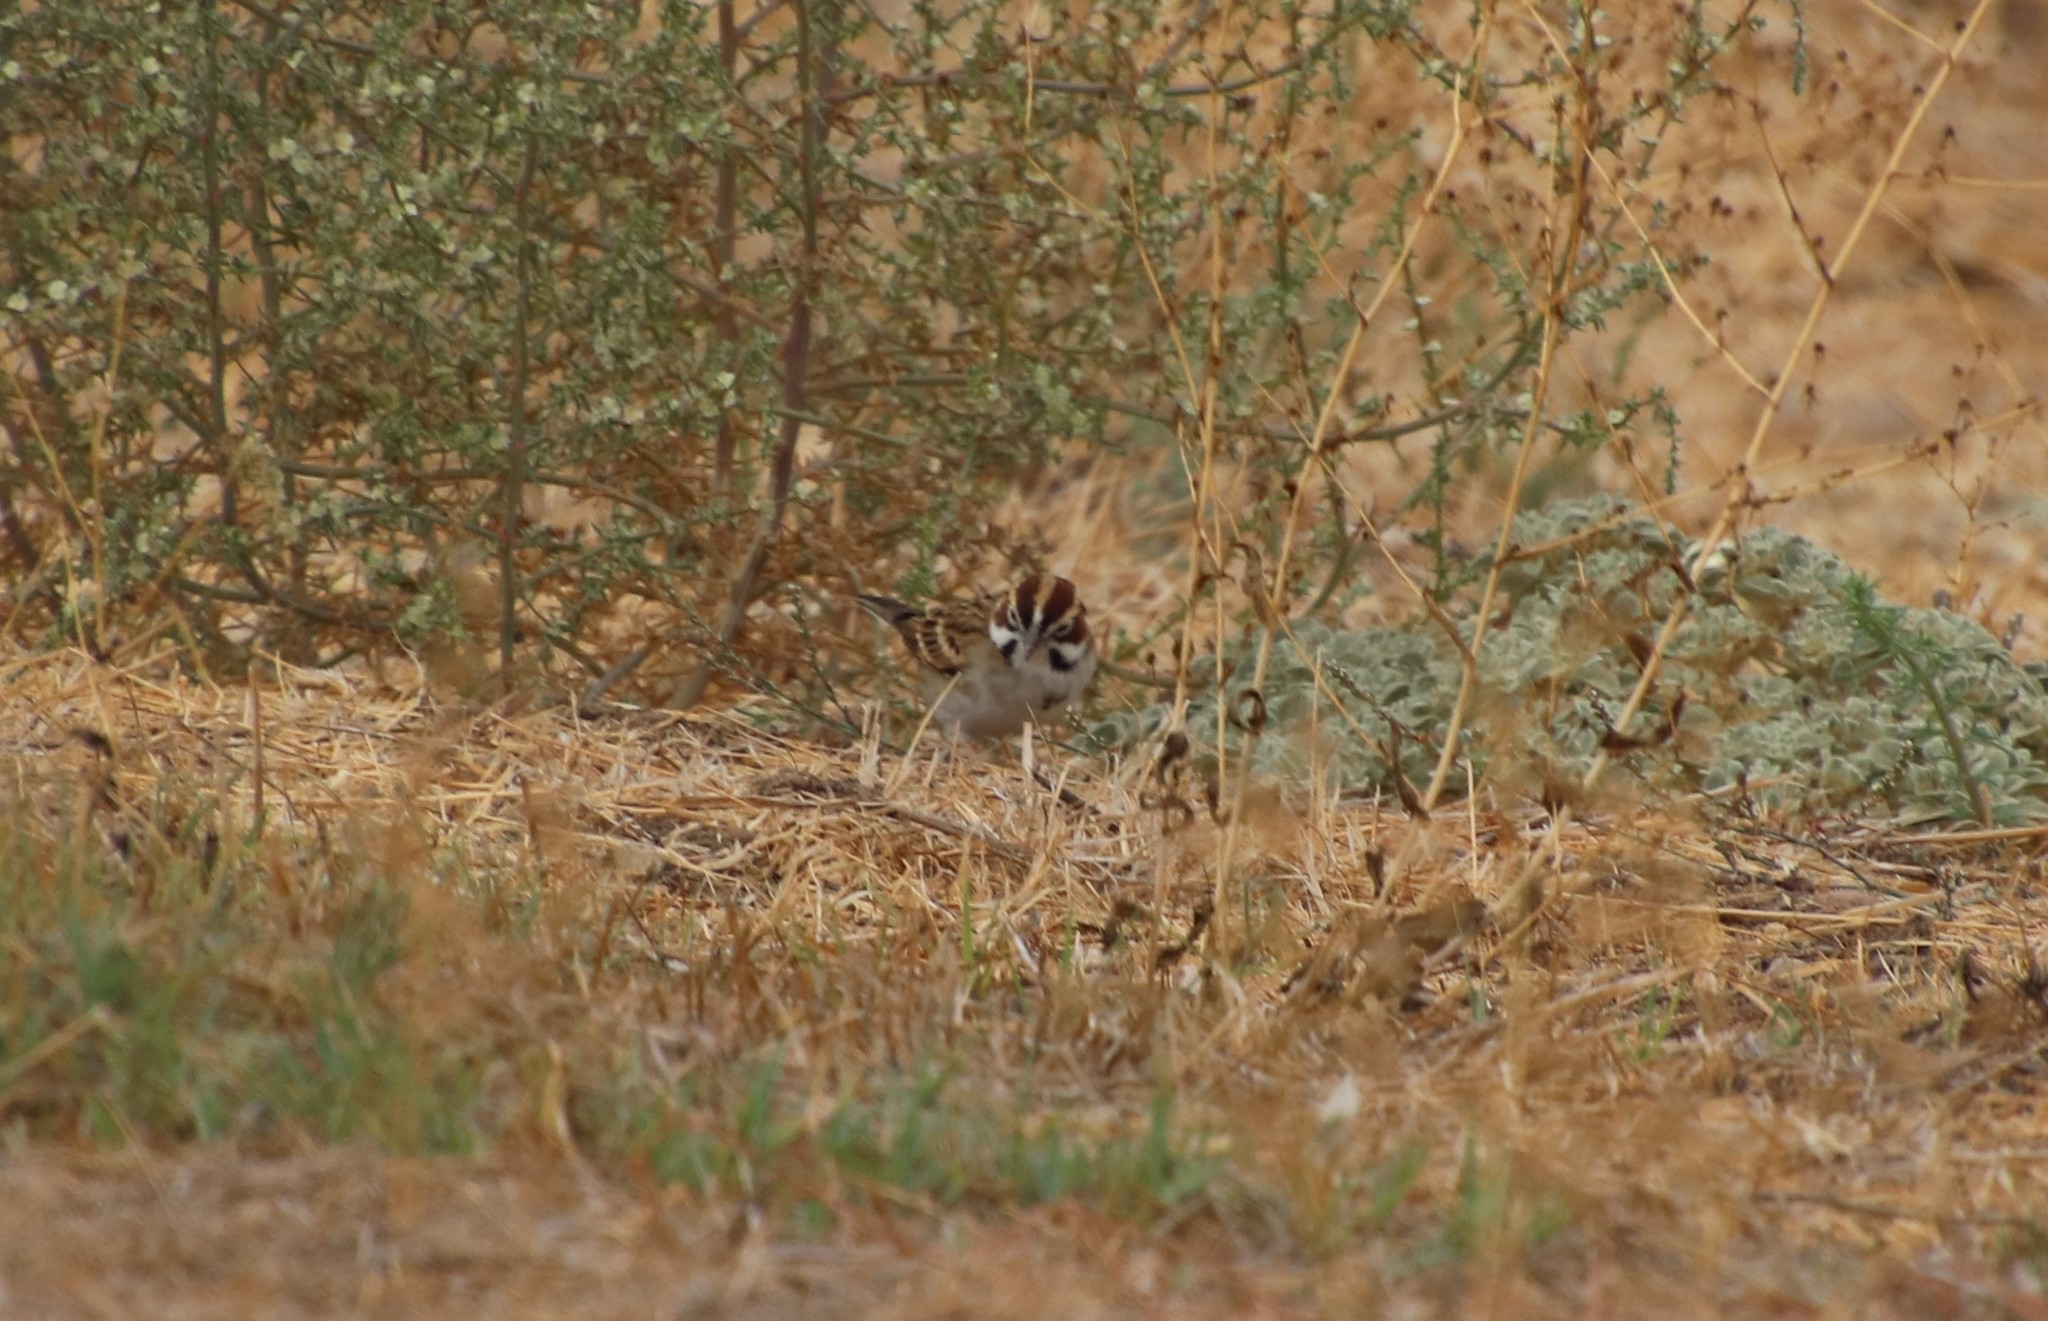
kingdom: Animalia
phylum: Chordata
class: Aves
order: Passeriformes
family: Passerellidae
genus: Chondestes
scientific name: Chondestes grammacus
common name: Lark sparrow
